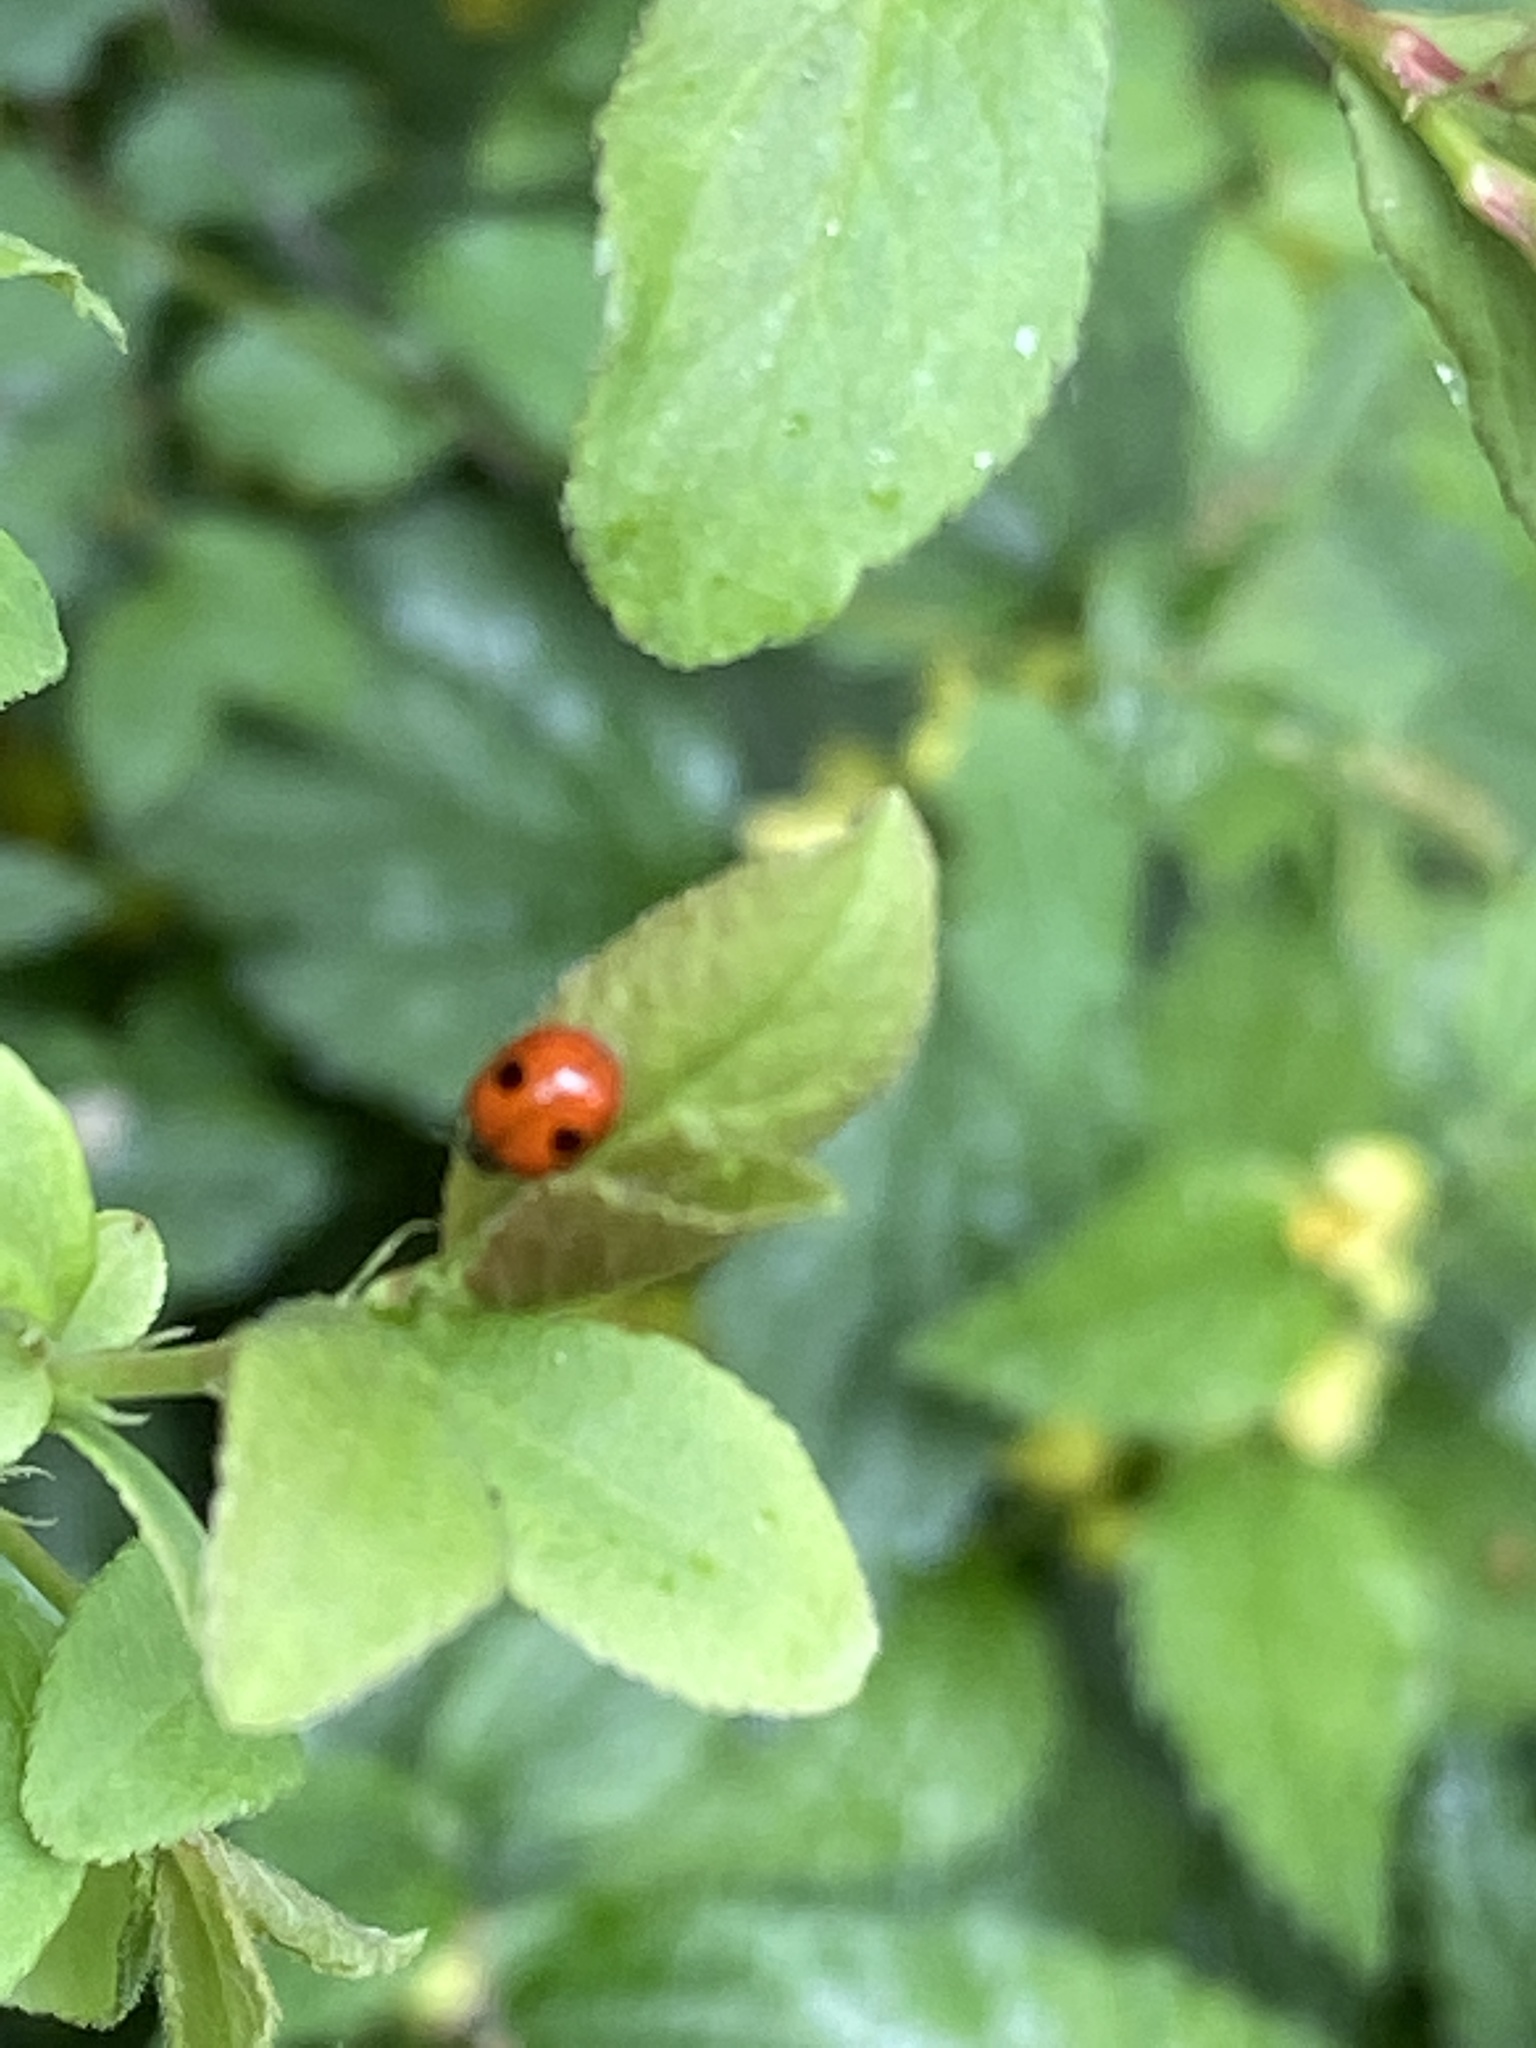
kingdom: Animalia
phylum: Arthropoda
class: Insecta
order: Coleoptera
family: Coccinellidae
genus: Adalia
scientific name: Adalia bipunctata
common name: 2-spot ladybird
